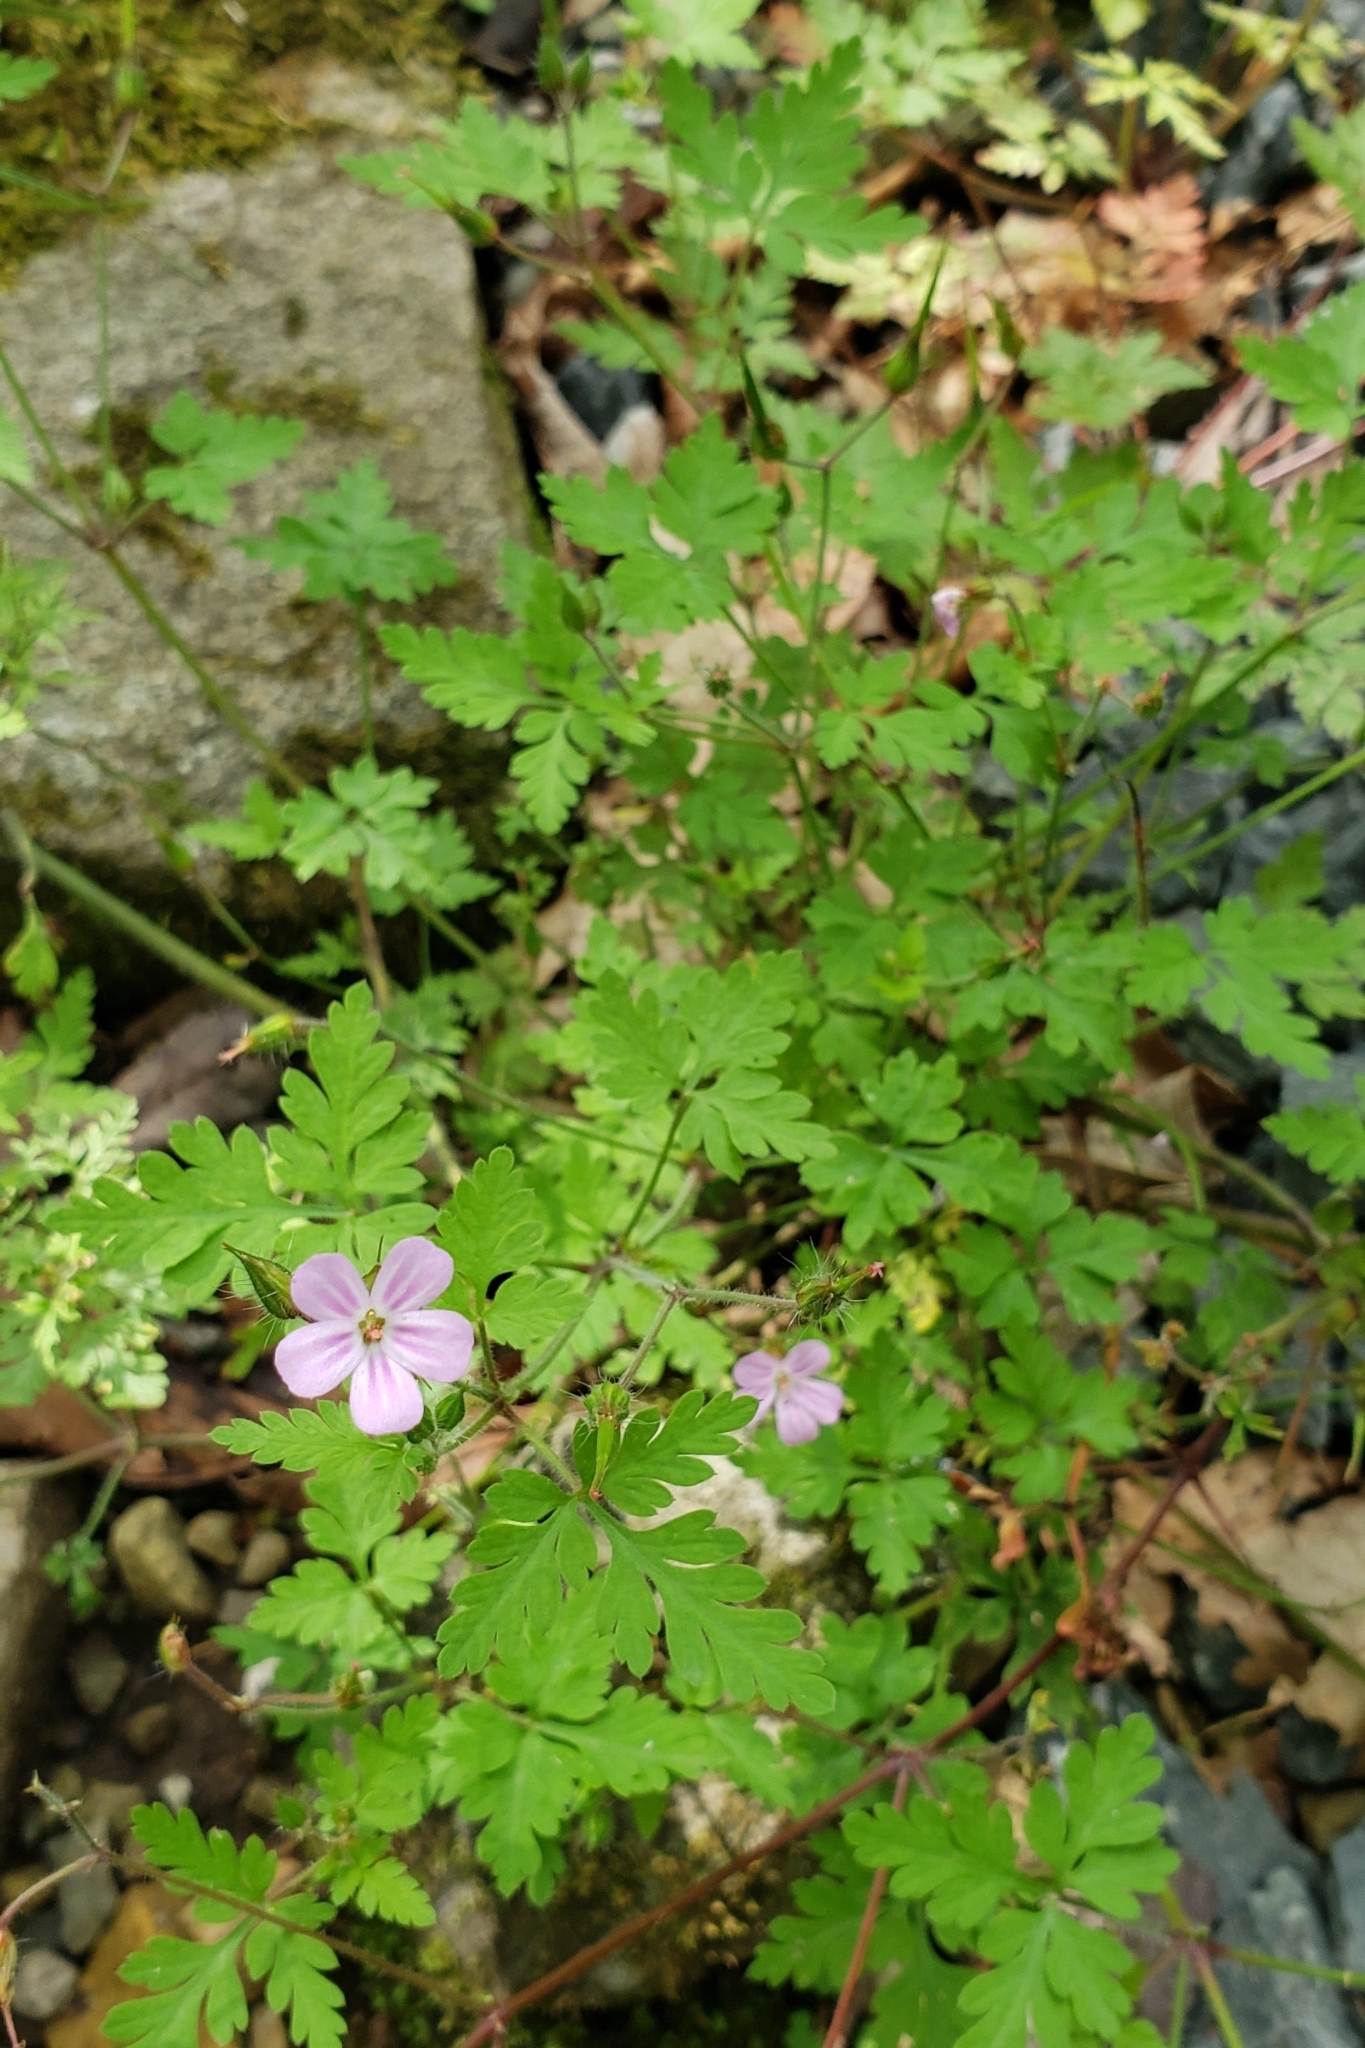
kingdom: Plantae
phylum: Tracheophyta
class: Magnoliopsida
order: Geraniales
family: Geraniaceae
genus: Geranium
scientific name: Geranium robertianum
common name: Herb-robert
